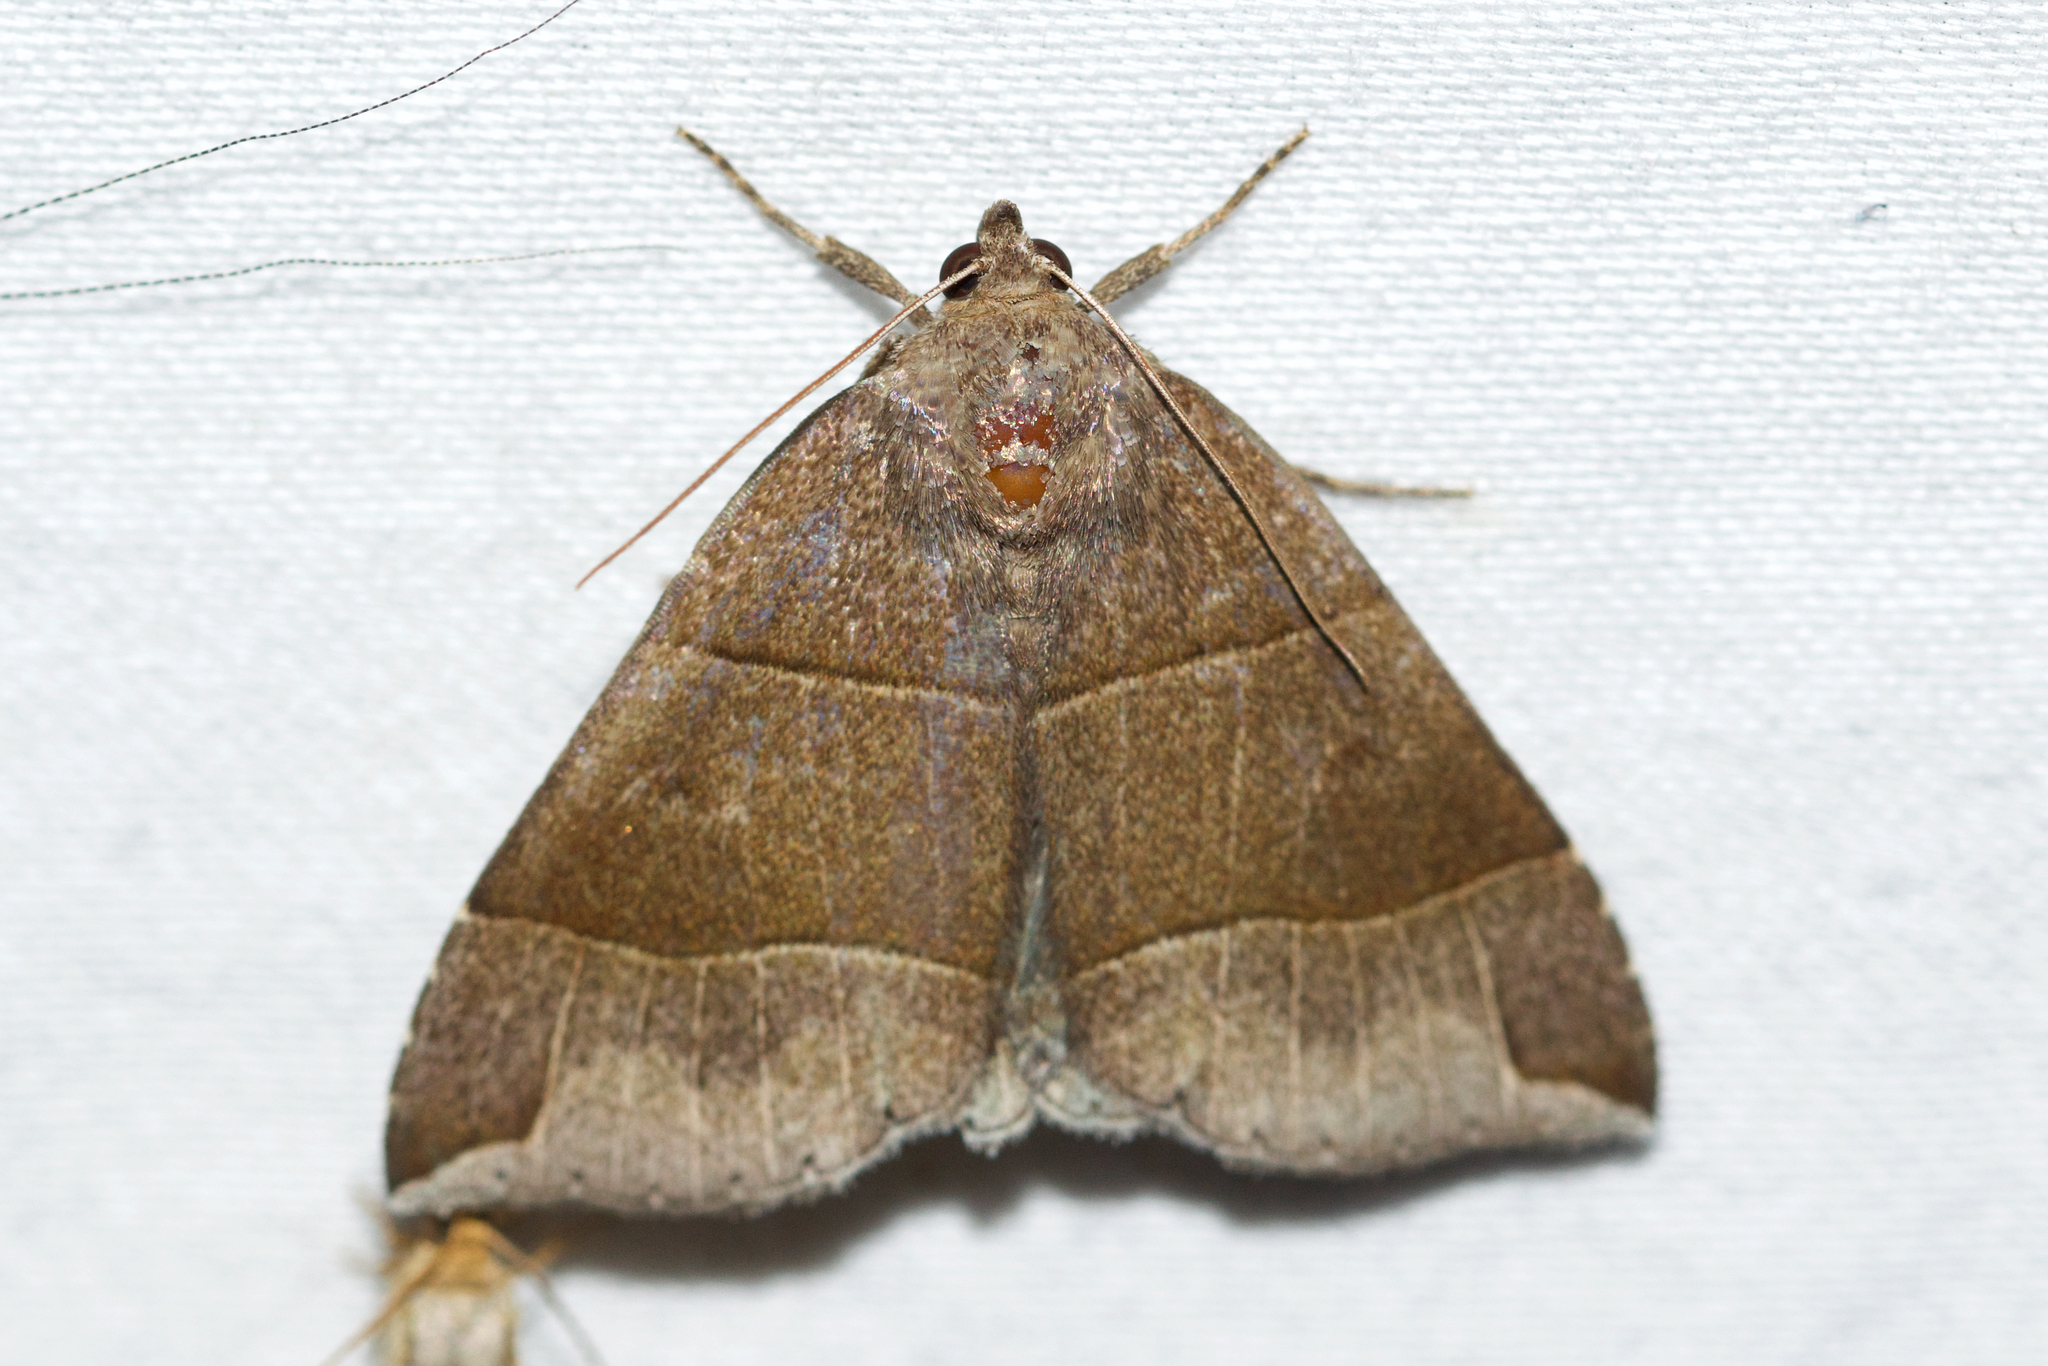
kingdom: Animalia
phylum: Arthropoda
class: Insecta
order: Lepidoptera
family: Erebidae
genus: Parallelia
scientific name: Parallelia bistriaris
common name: Maple looper moth
